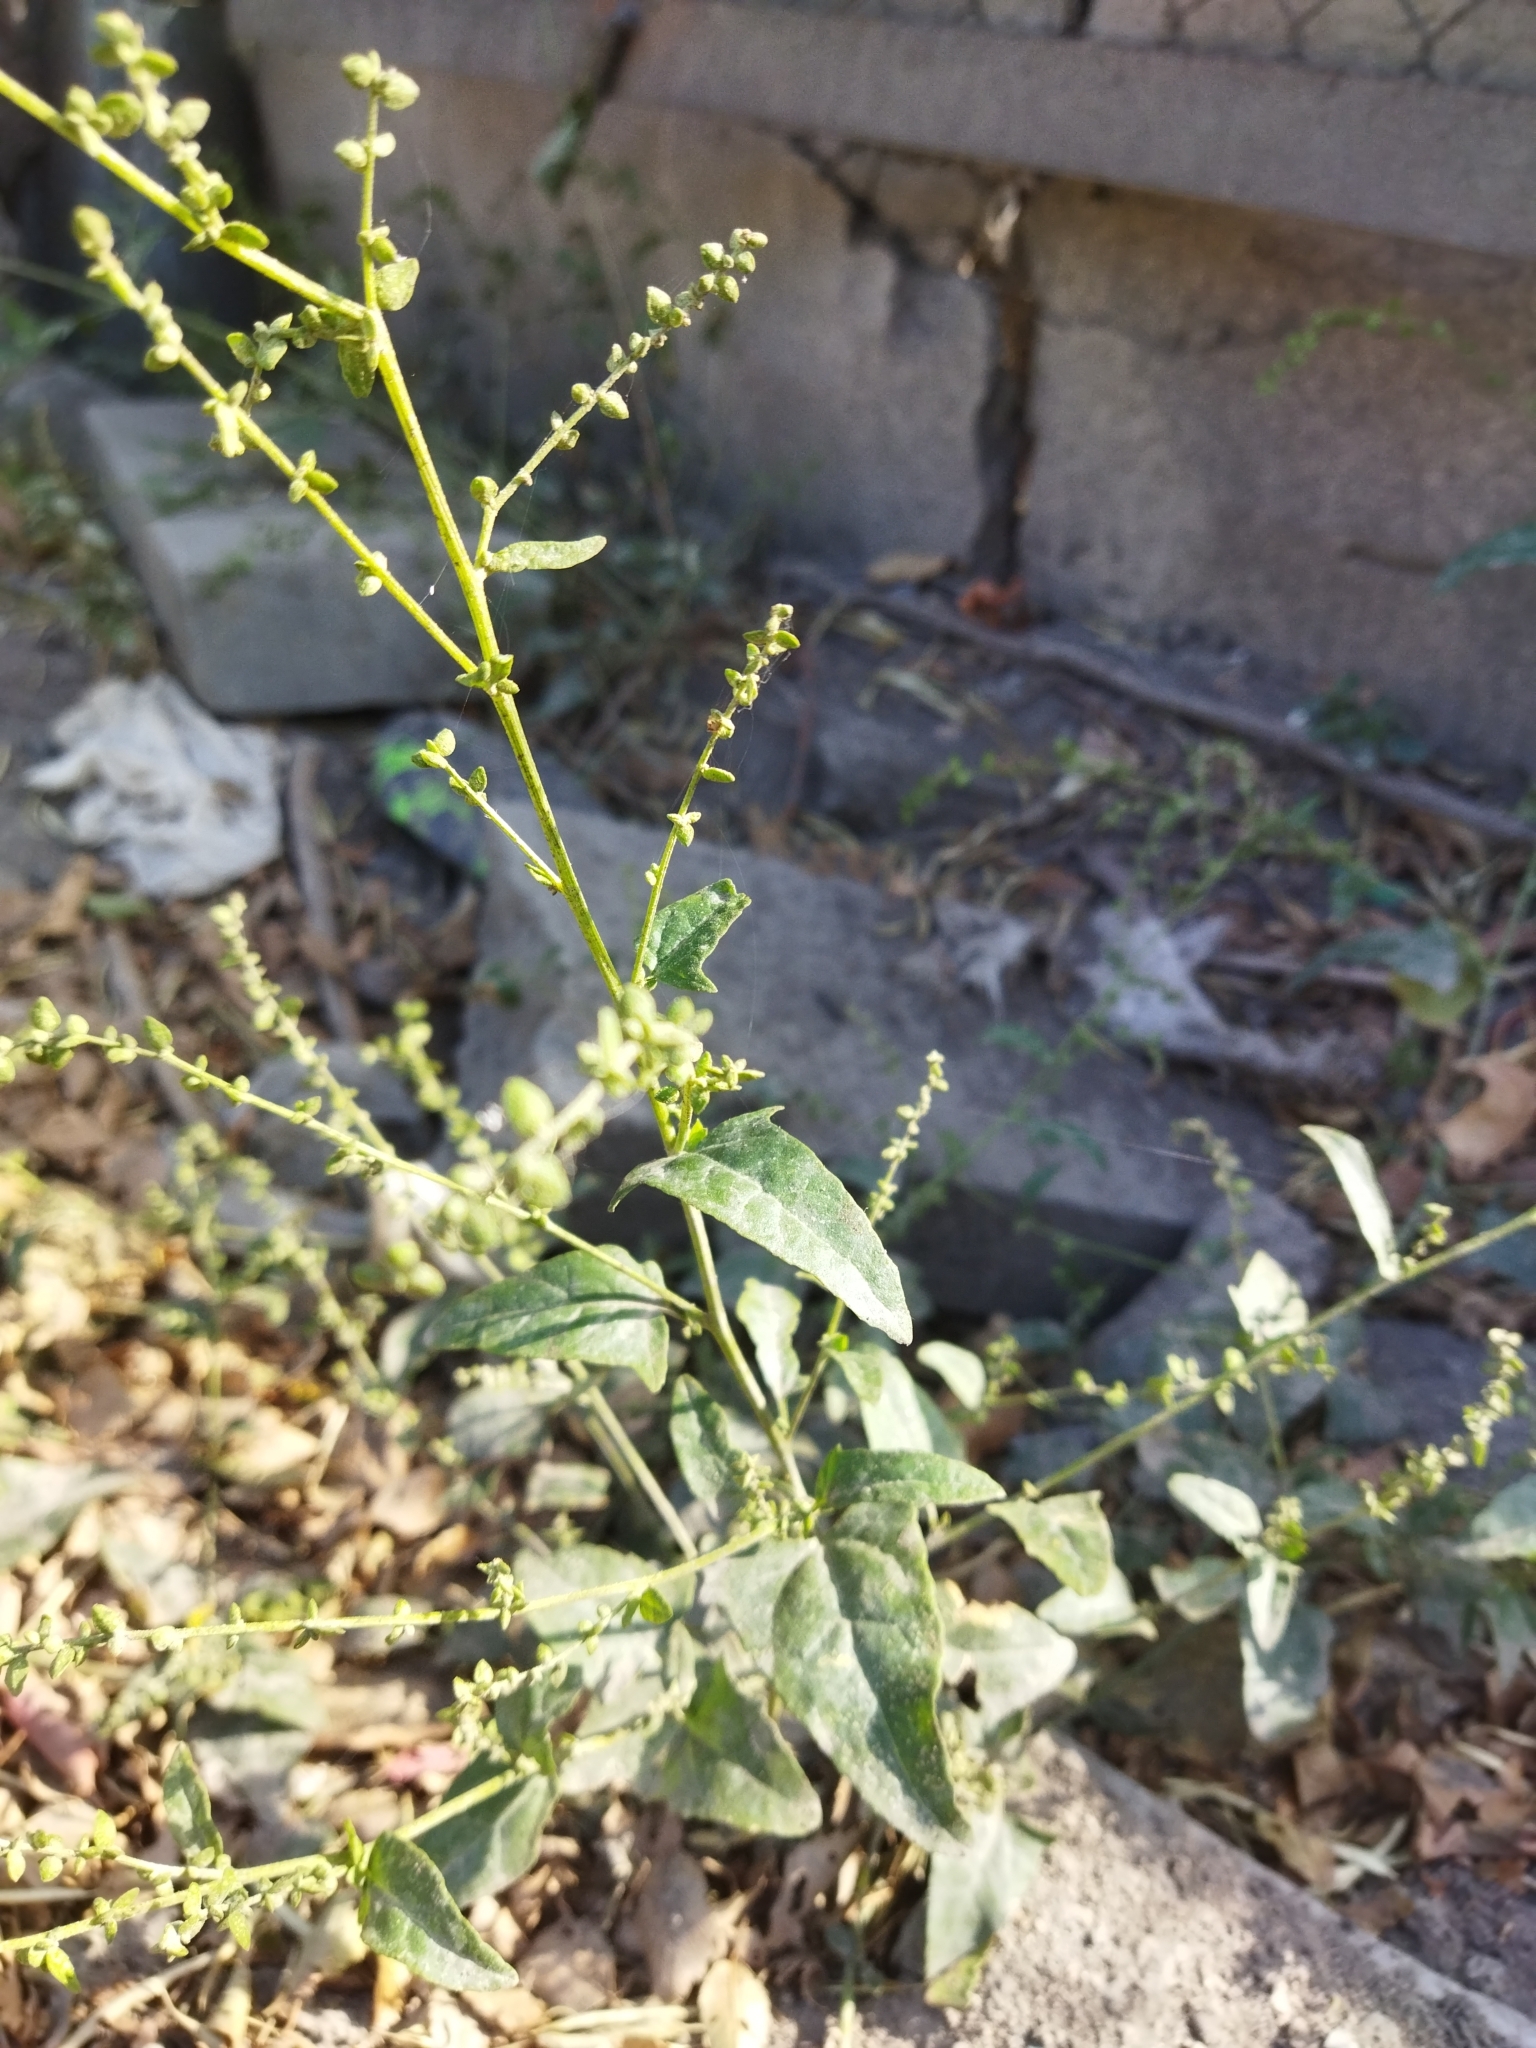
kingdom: Plantae
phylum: Tracheophyta
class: Magnoliopsida
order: Caryophyllales
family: Amaranthaceae
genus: Atriplex
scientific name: Atriplex prostrata
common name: Spear-leaved orache
